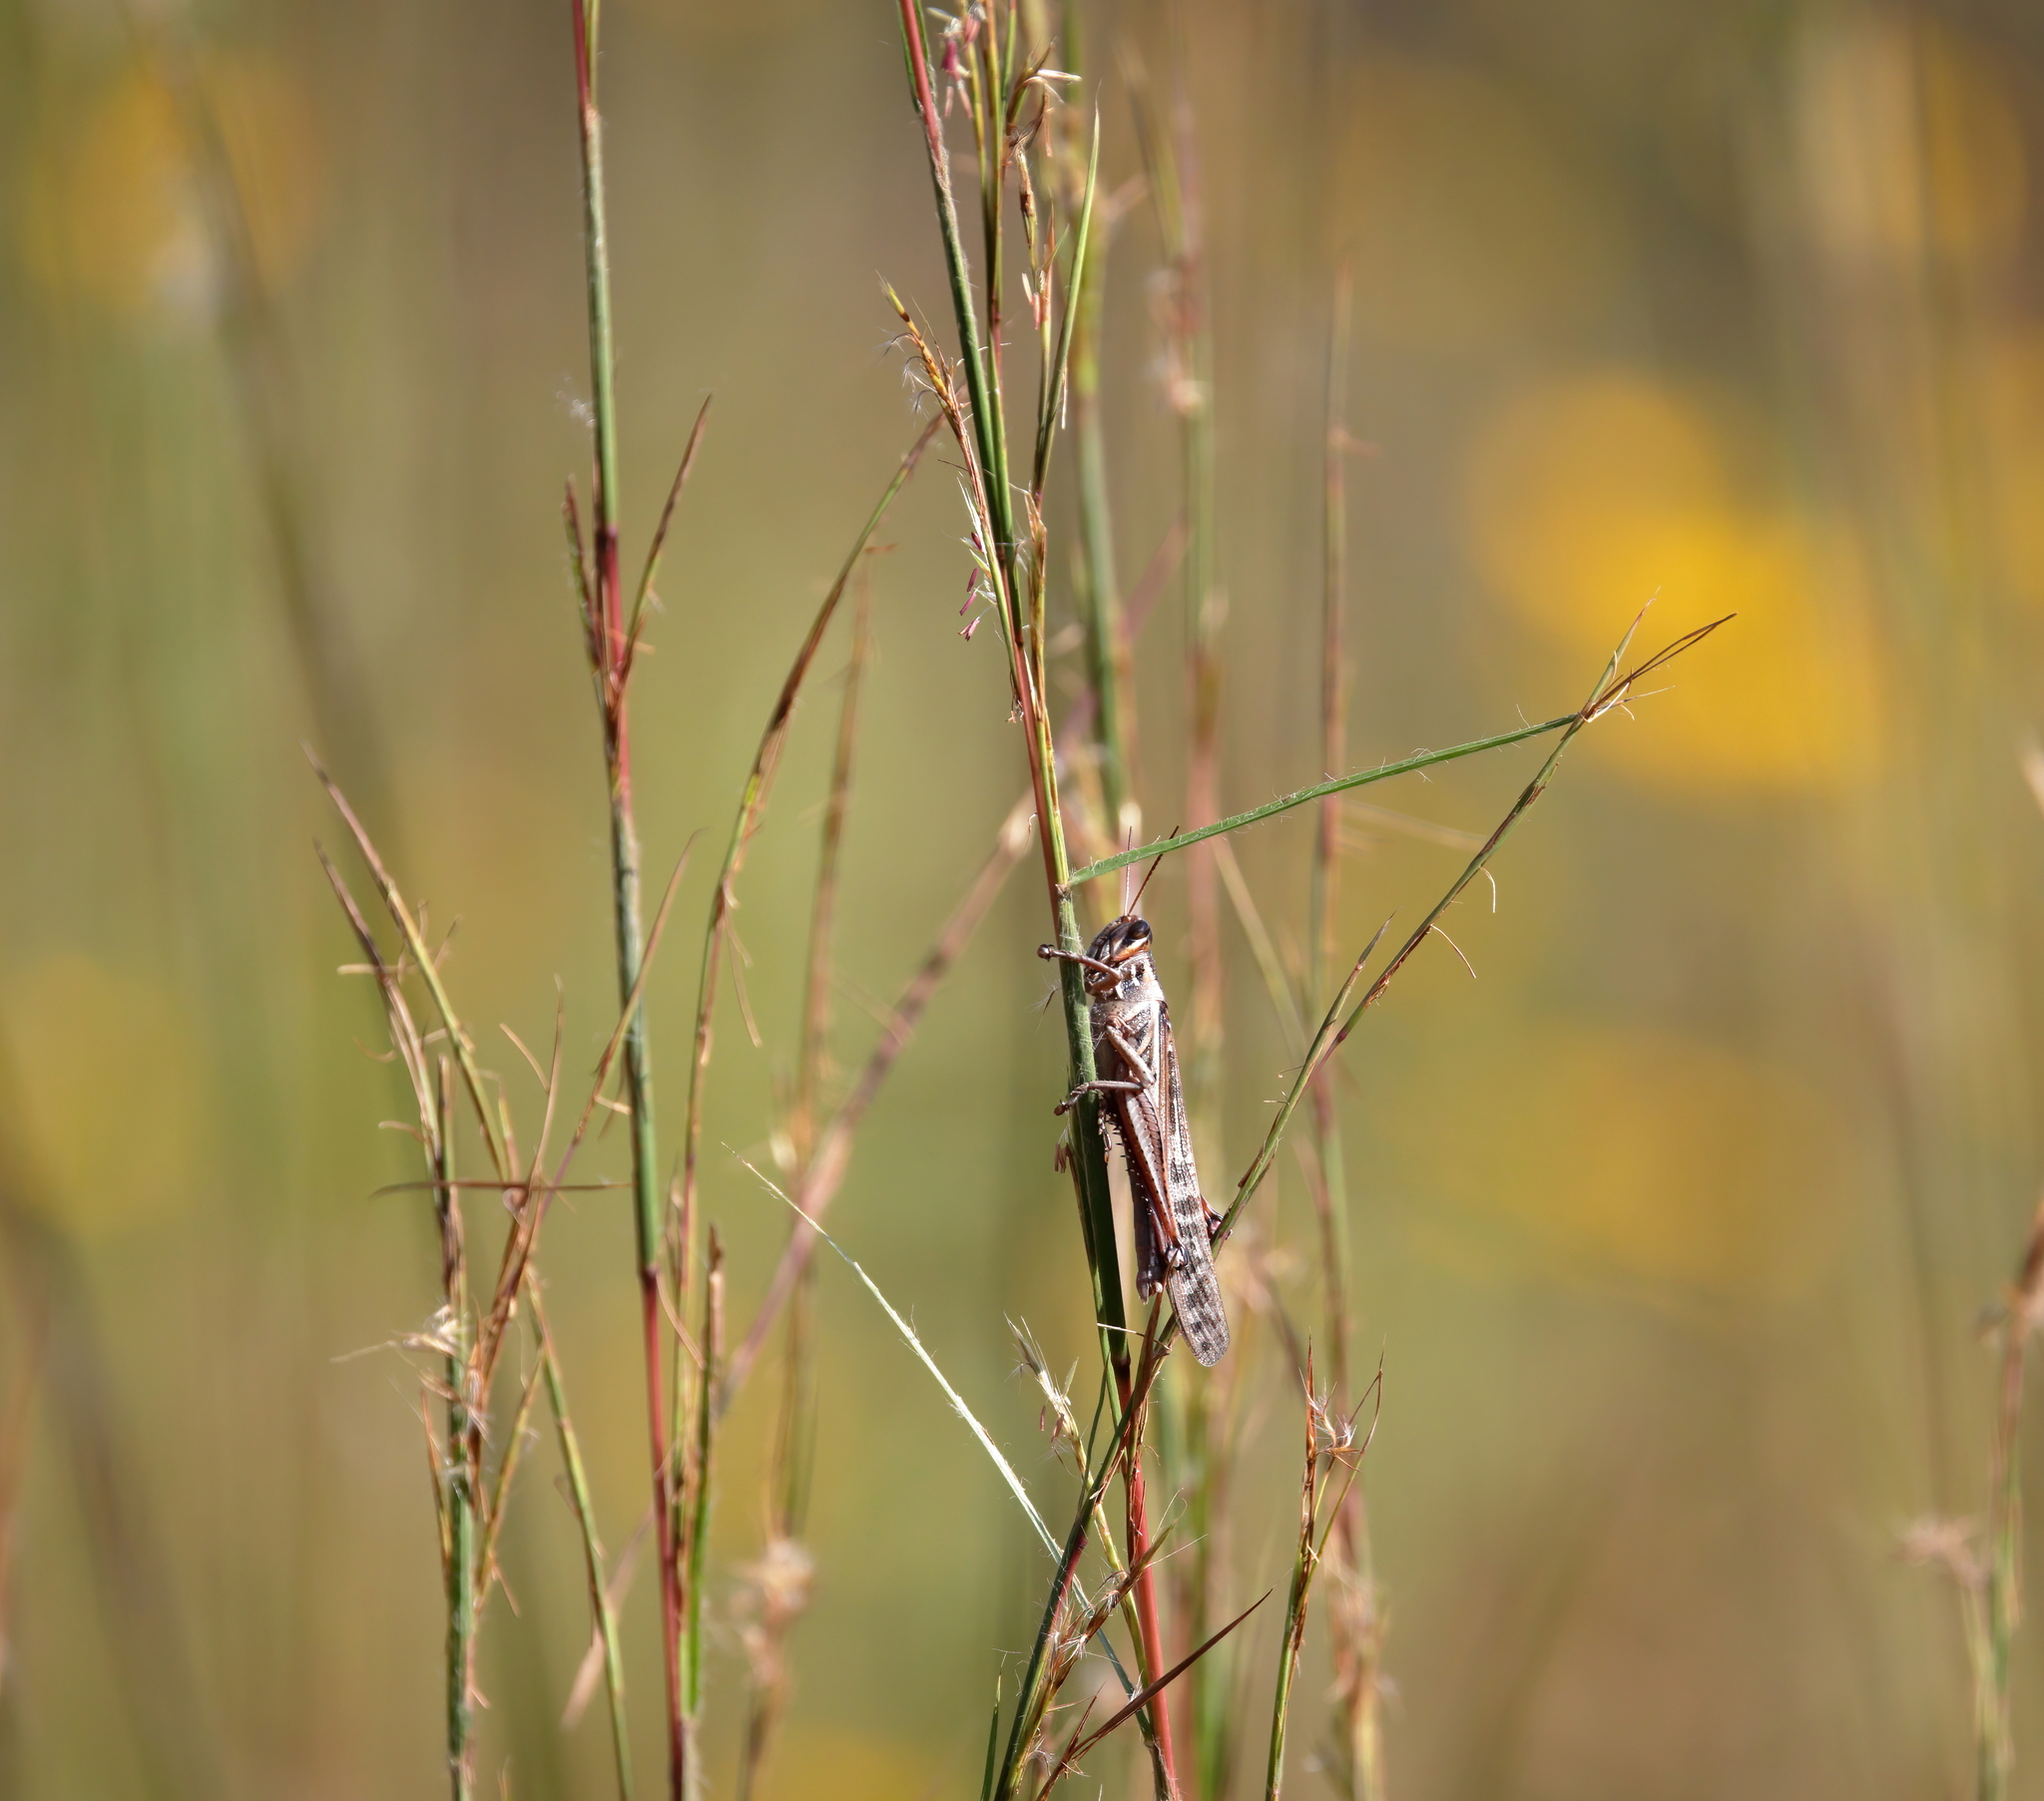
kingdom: Animalia
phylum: Arthropoda
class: Insecta
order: Orthoptera
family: Acrididae
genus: Schistocerca
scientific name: Schistocerca americana
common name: American bird locust
